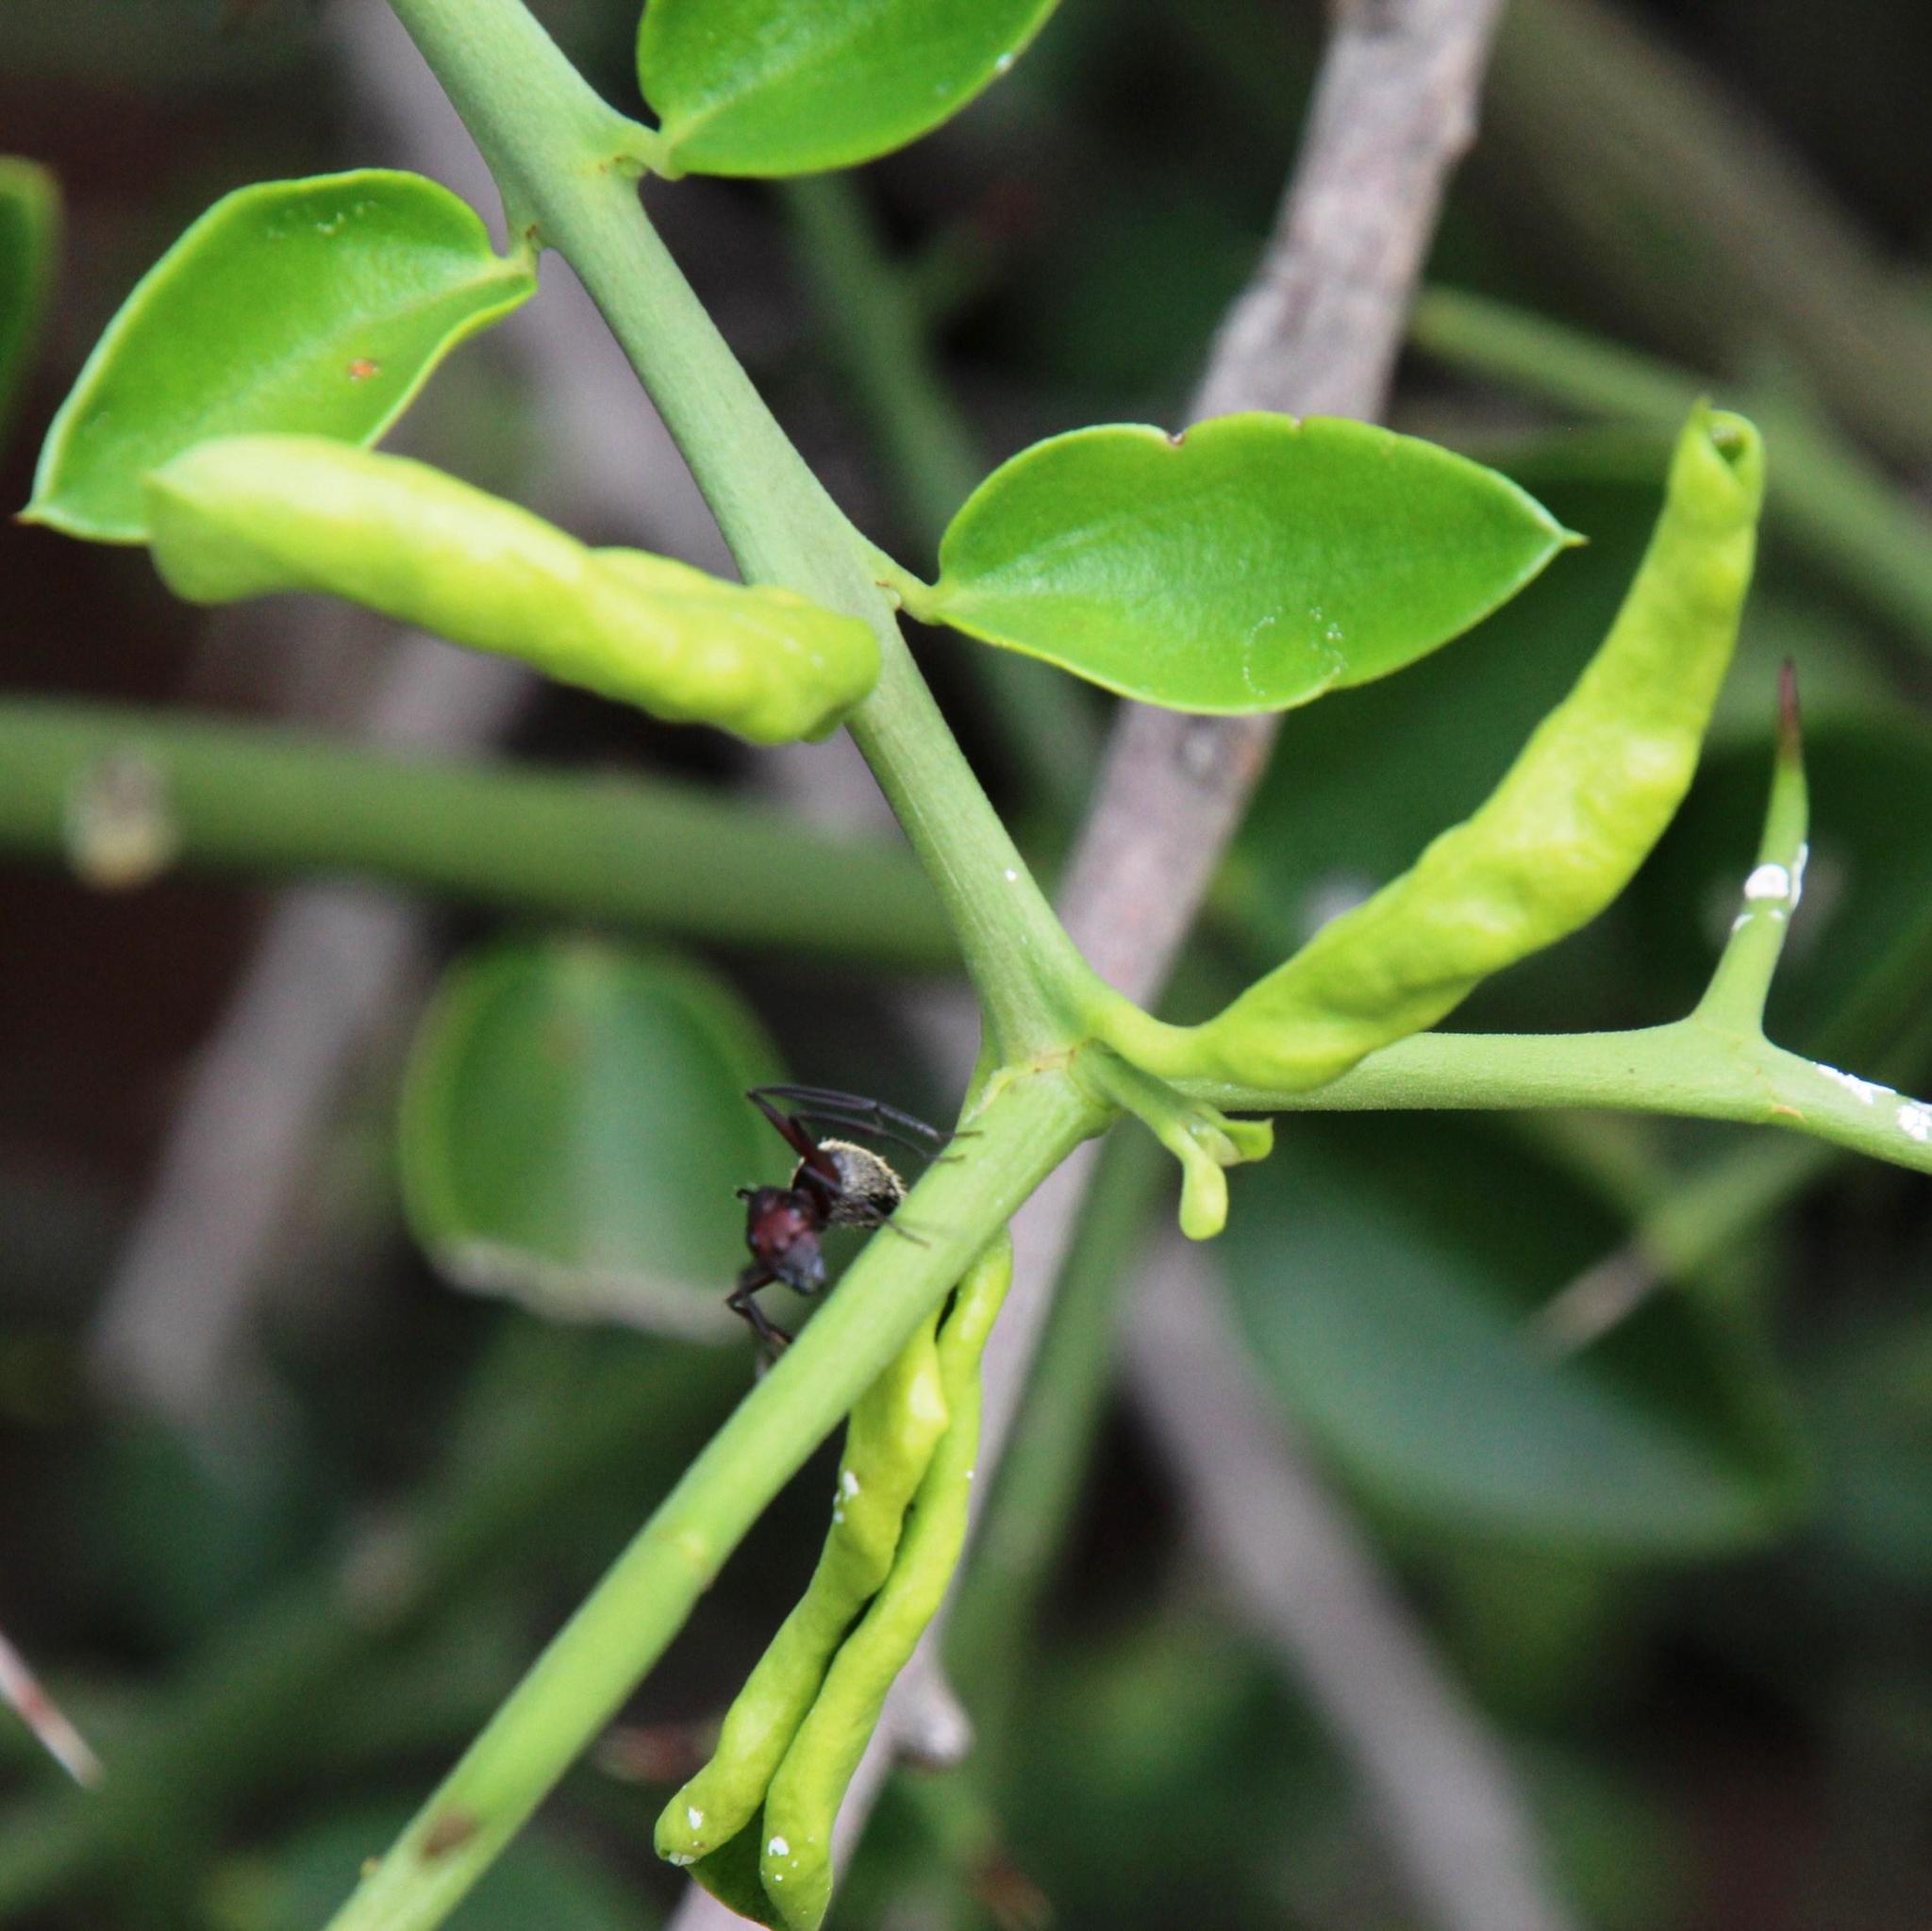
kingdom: Animalia
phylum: Arthropoda
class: Insecta
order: Hymenoptera
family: Formicidae
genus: Camponotus
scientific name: Camponotus storeatus
